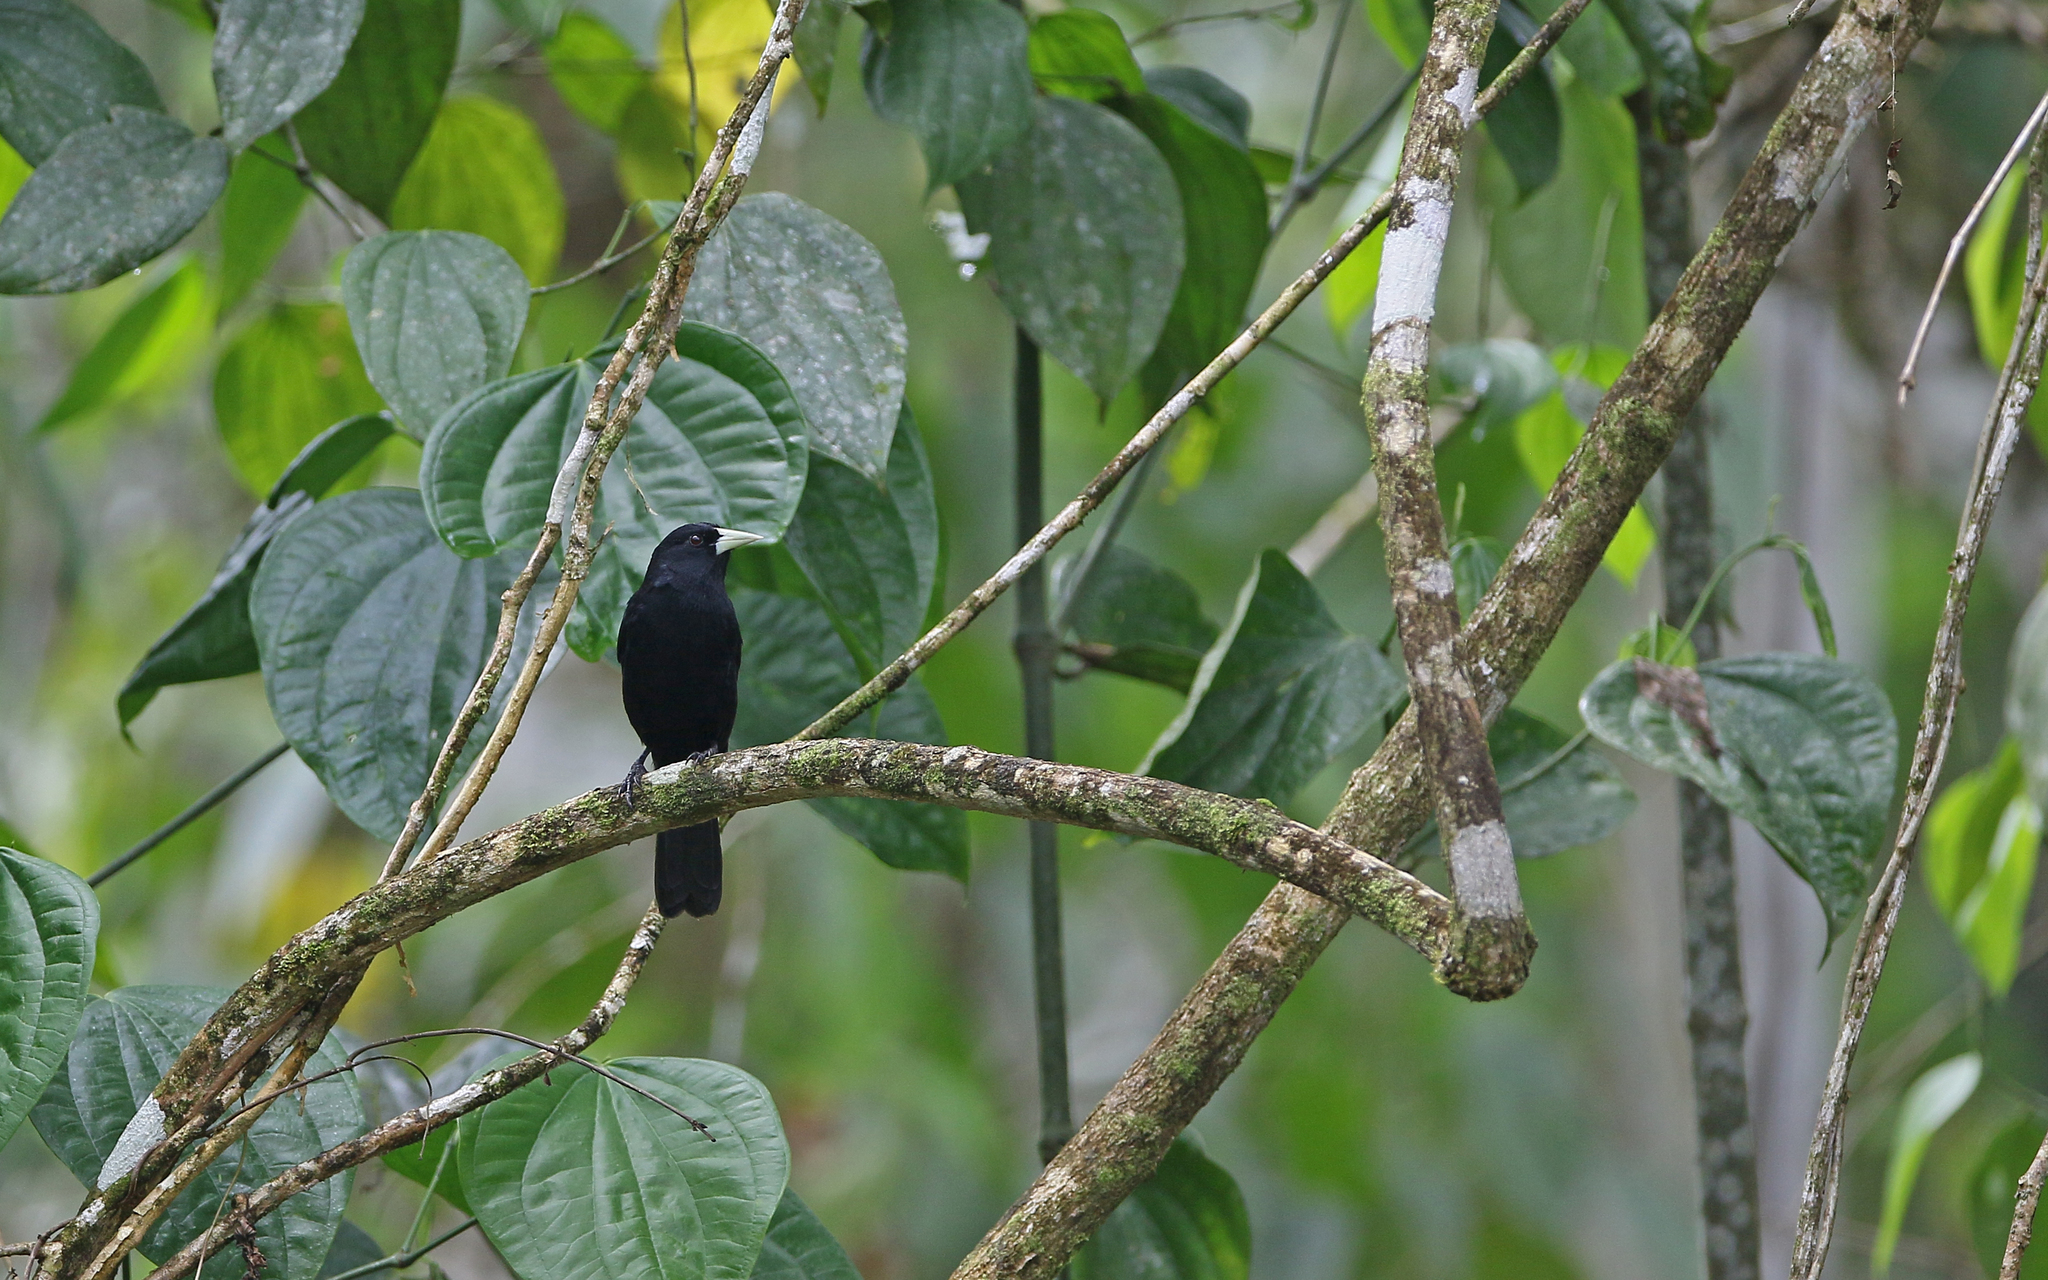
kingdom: Animalia
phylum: Chordata
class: Aves
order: Passeriformes
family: Icteridae
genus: Cacicus
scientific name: Cacicus solitarius
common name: Solitary cacique
